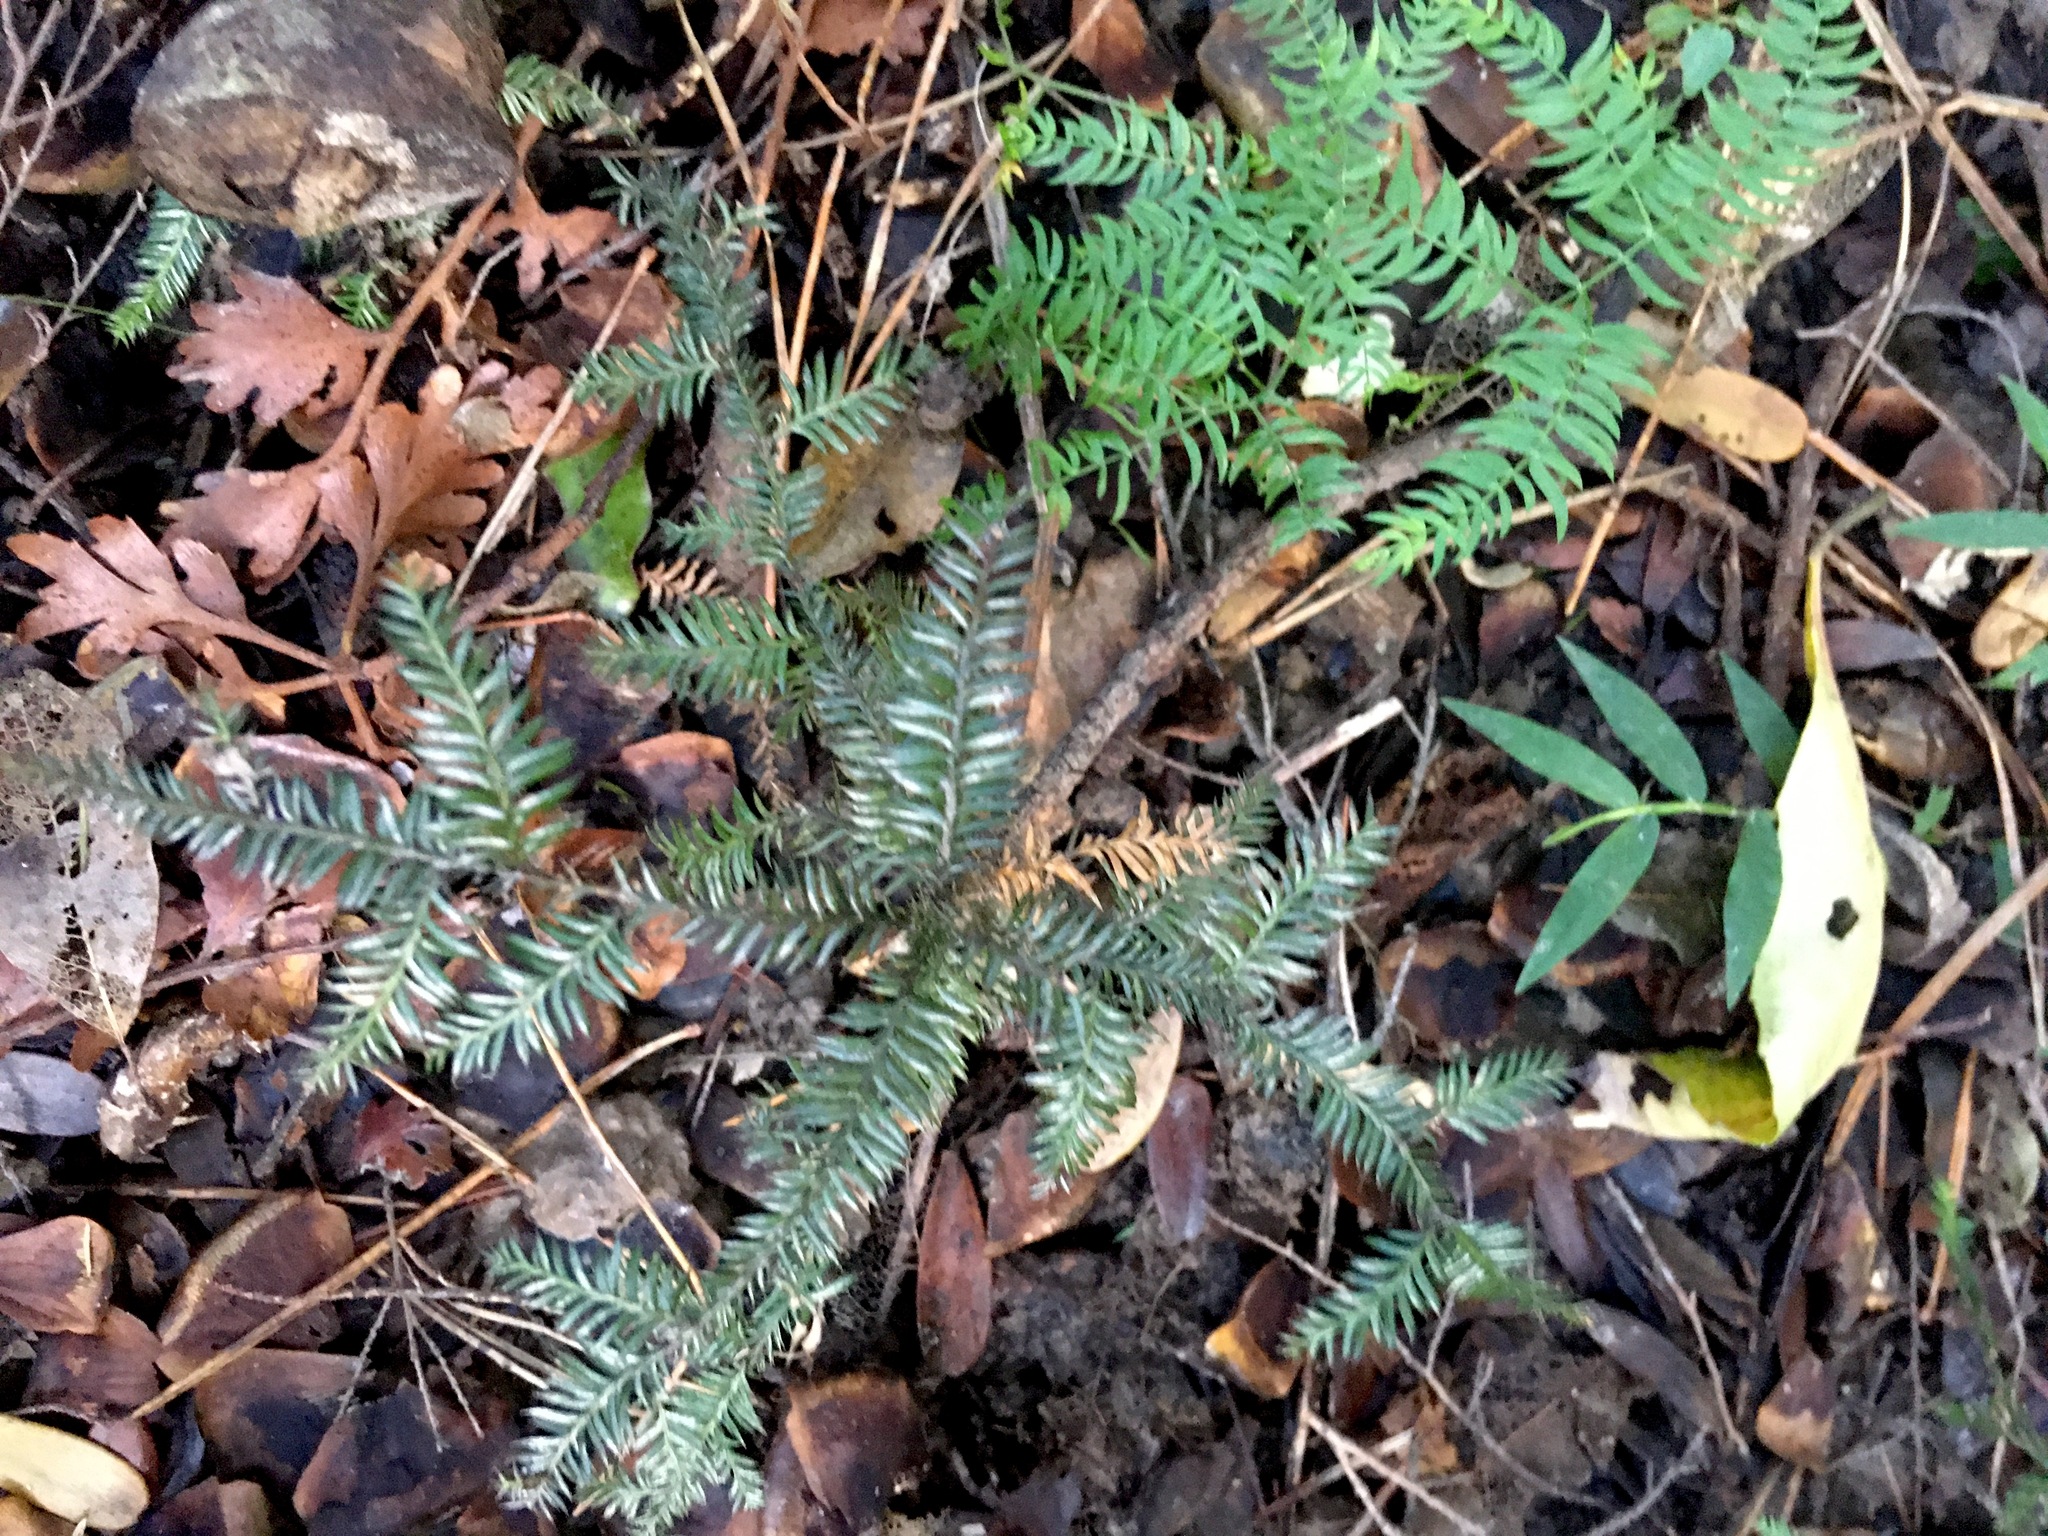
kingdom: Plantae
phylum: Tracheophyta
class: Pinopsida
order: Pinales
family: Podocarpaceae
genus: Dacrycarpus
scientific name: Dacrycarpus dacrydioides
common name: White pine
